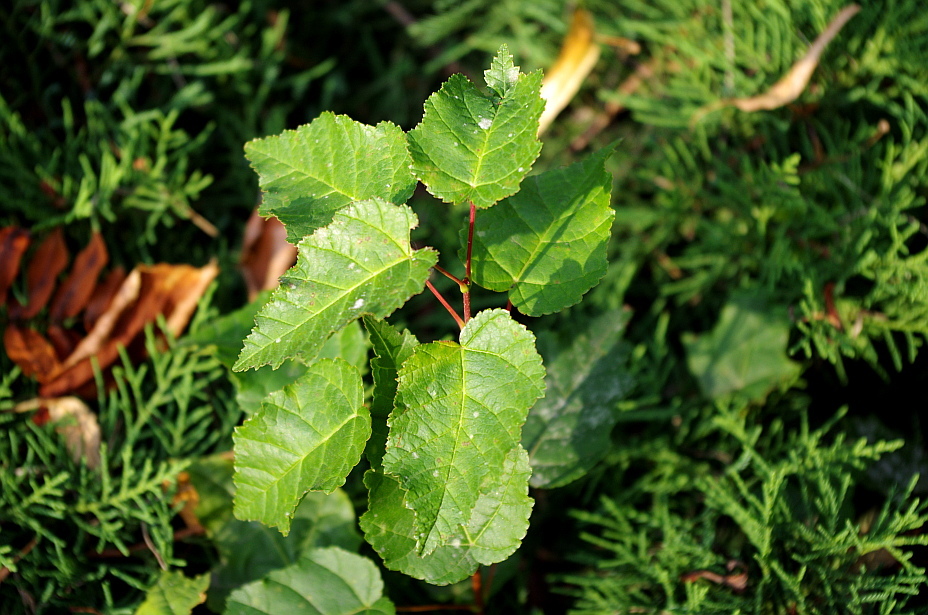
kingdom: Plantae
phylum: Tracheophyta
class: Magnoliopsida
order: Sapindales
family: Sapindaceae
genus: Acer
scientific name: Acer tataricum
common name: Tartar maple
